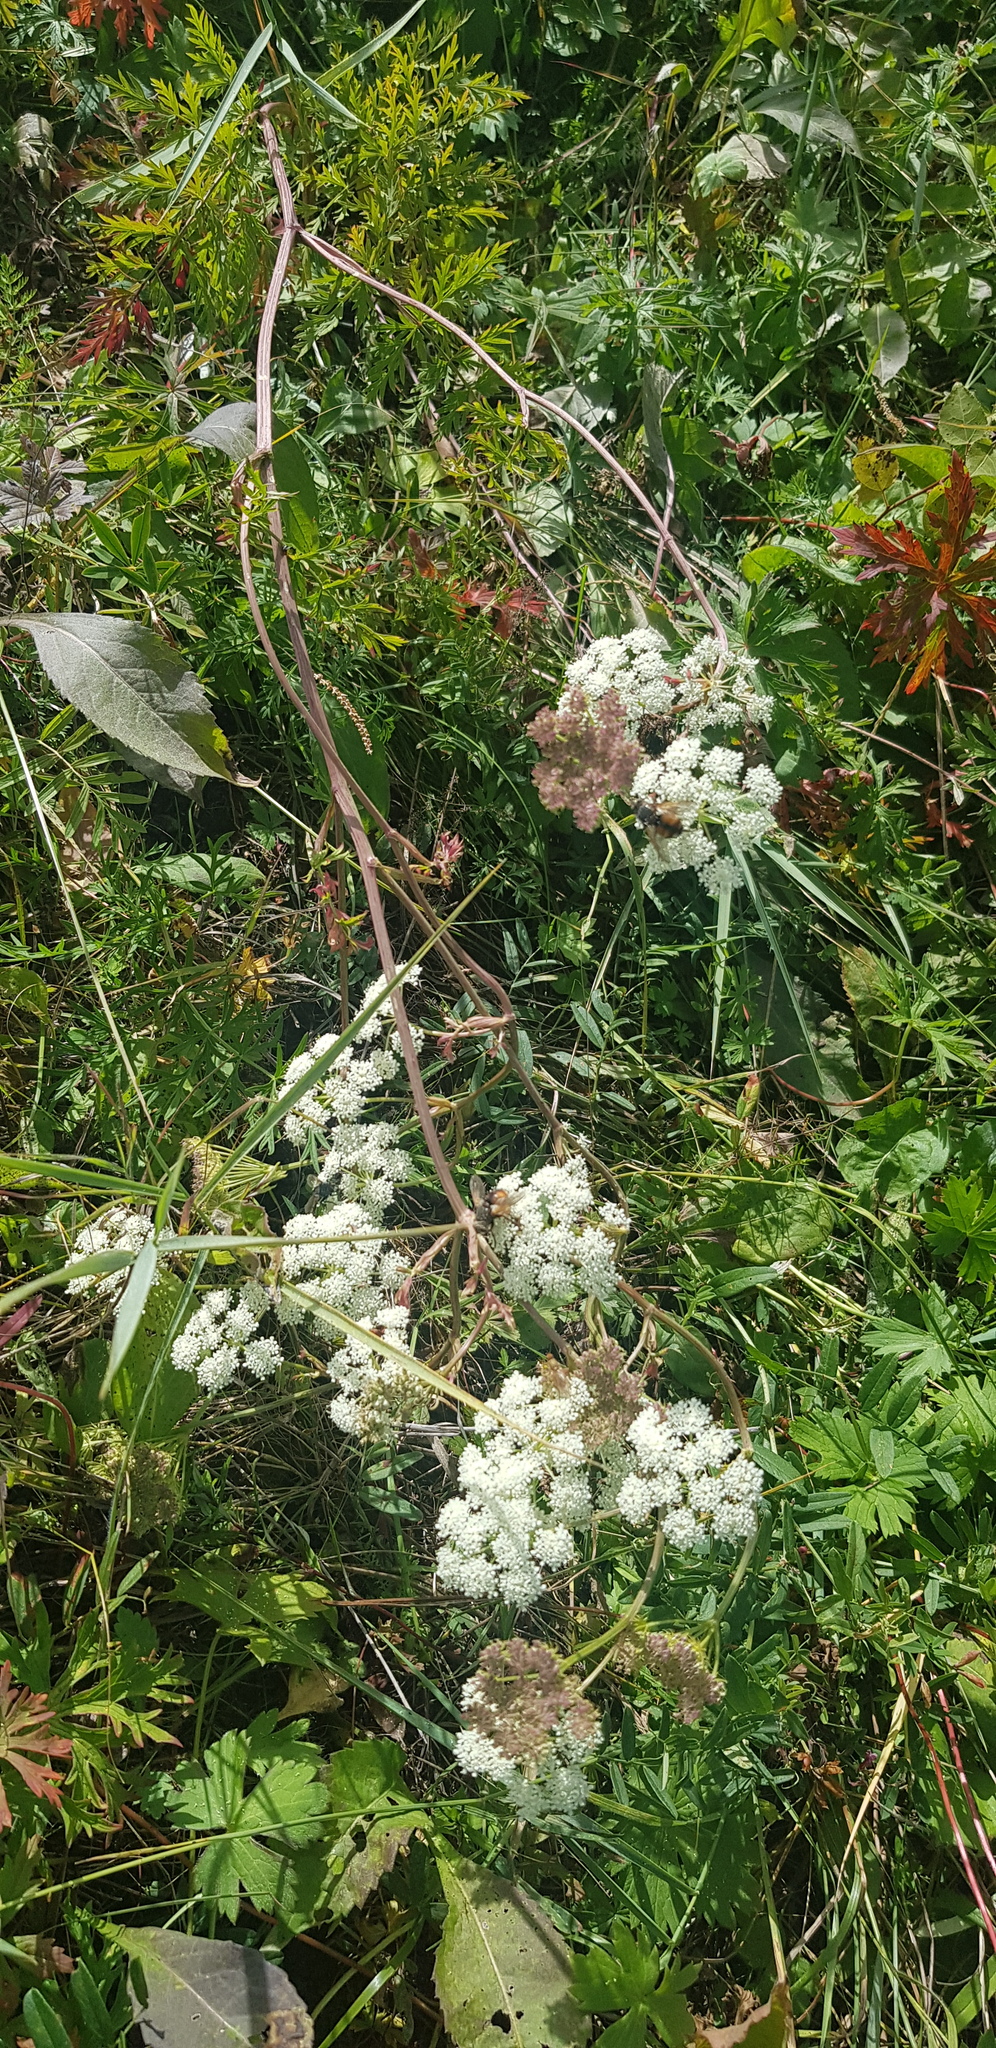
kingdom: Plantae
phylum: Tracheophyta
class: Magnoliopsida
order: Apiales
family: Apiaceae
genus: Kitagawia
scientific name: Kitagawia terebinthacea
